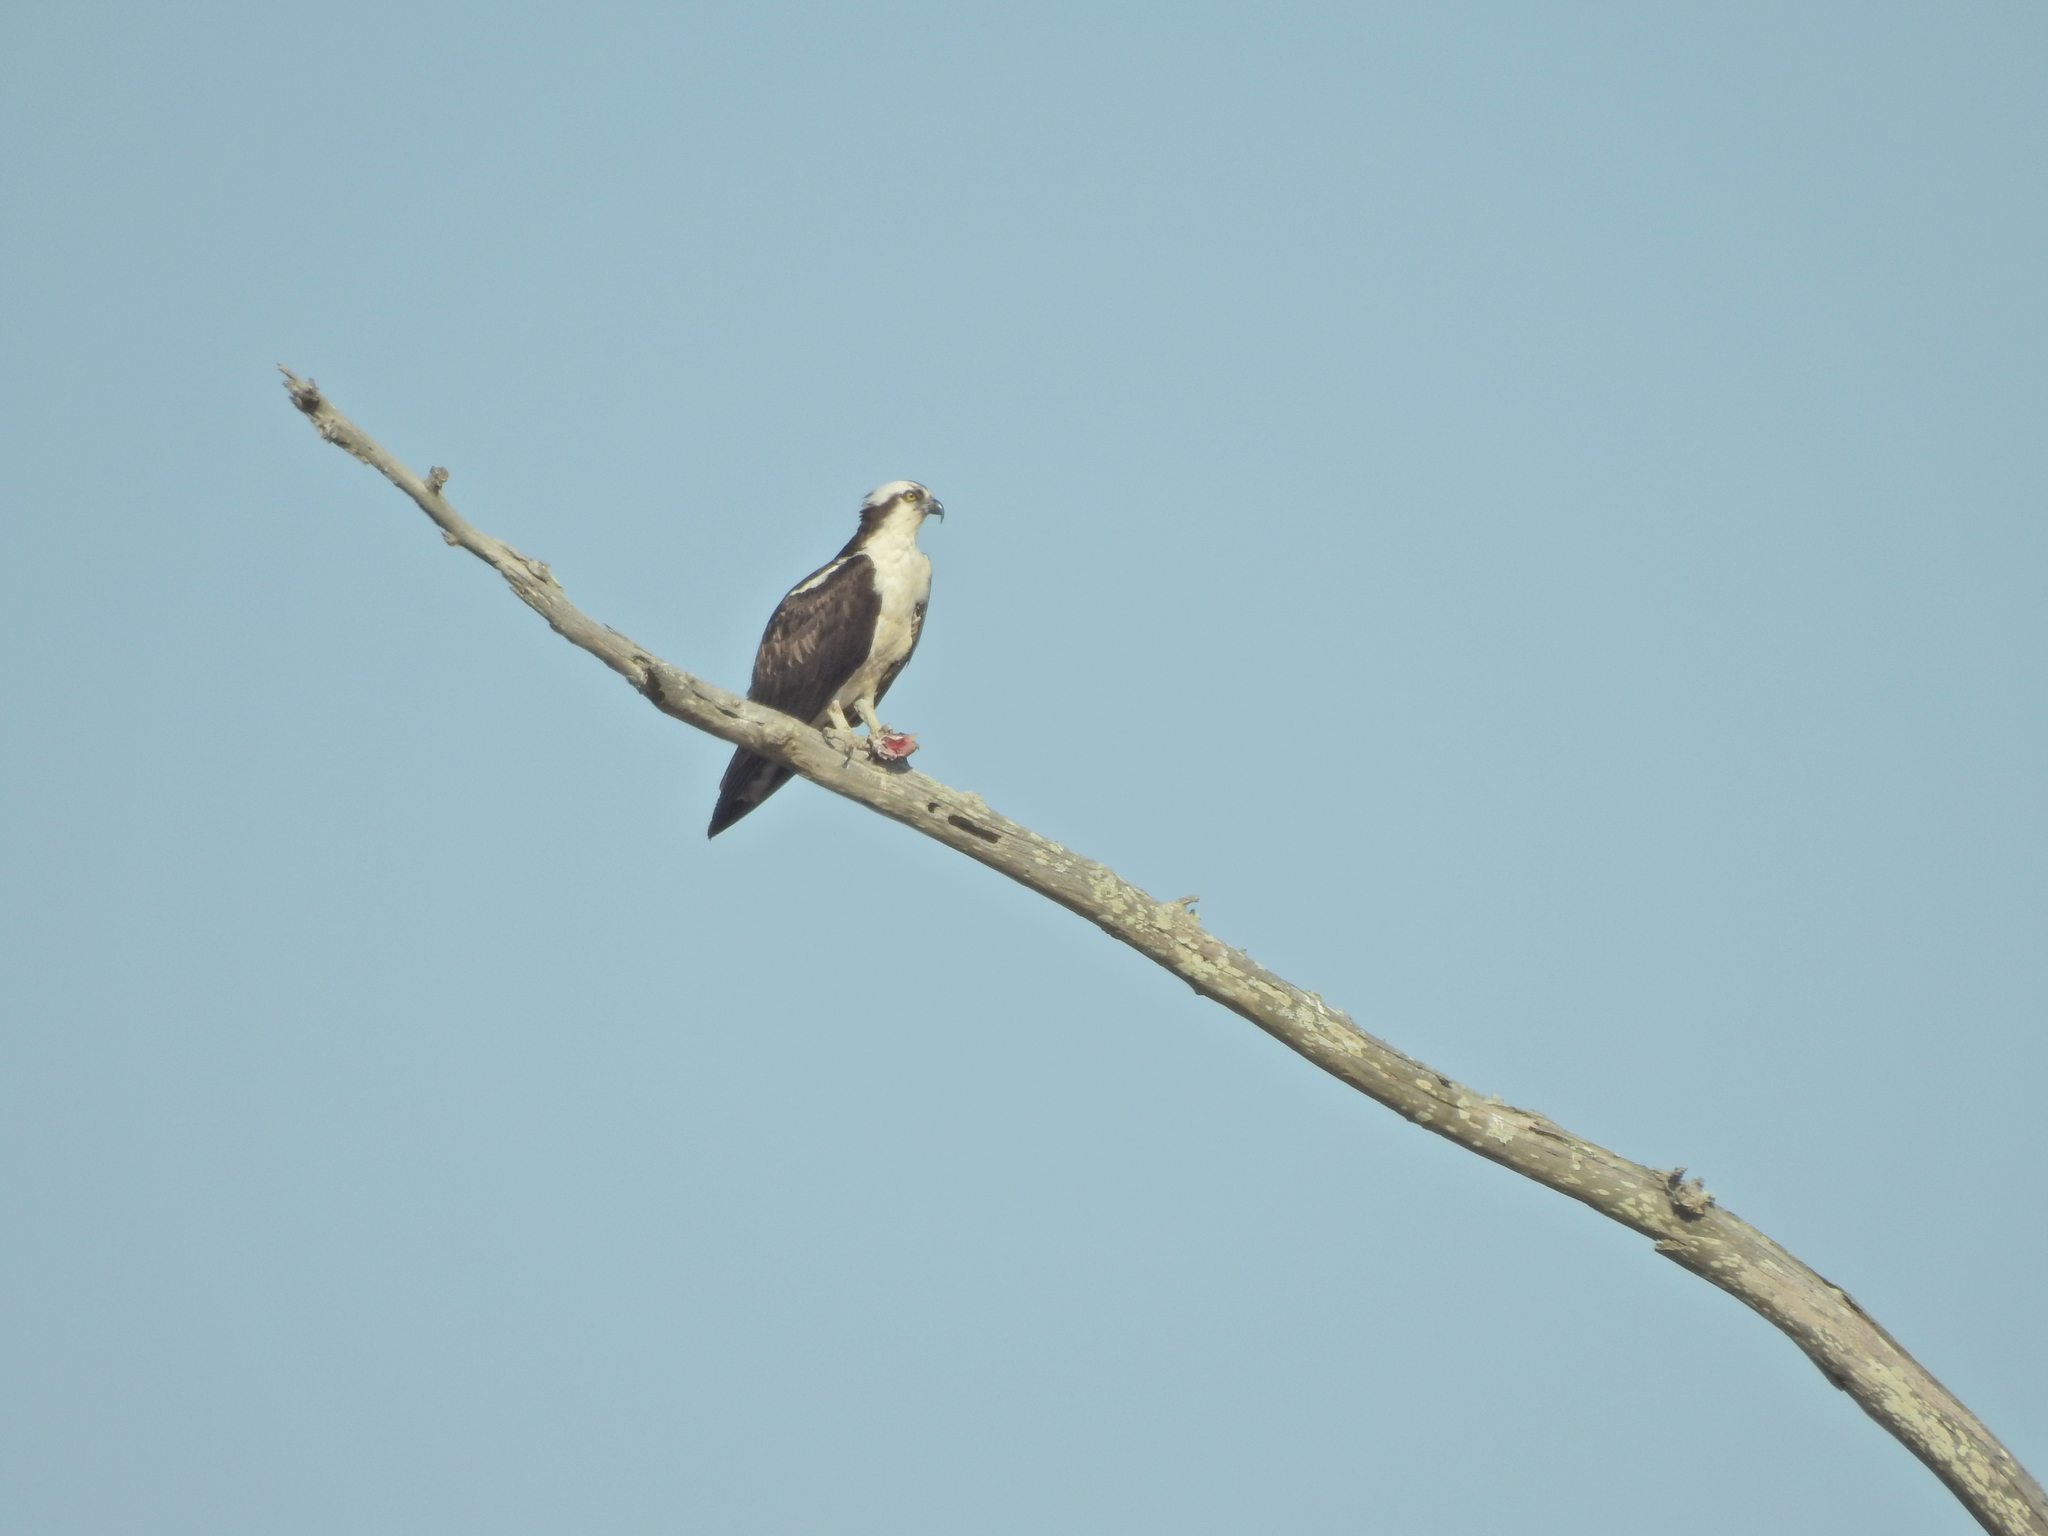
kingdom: Animalia
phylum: Chordata
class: Aves
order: Accipitriformes
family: Pandionidae
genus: Pandion
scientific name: Pandion haliaetus
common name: Osprey
